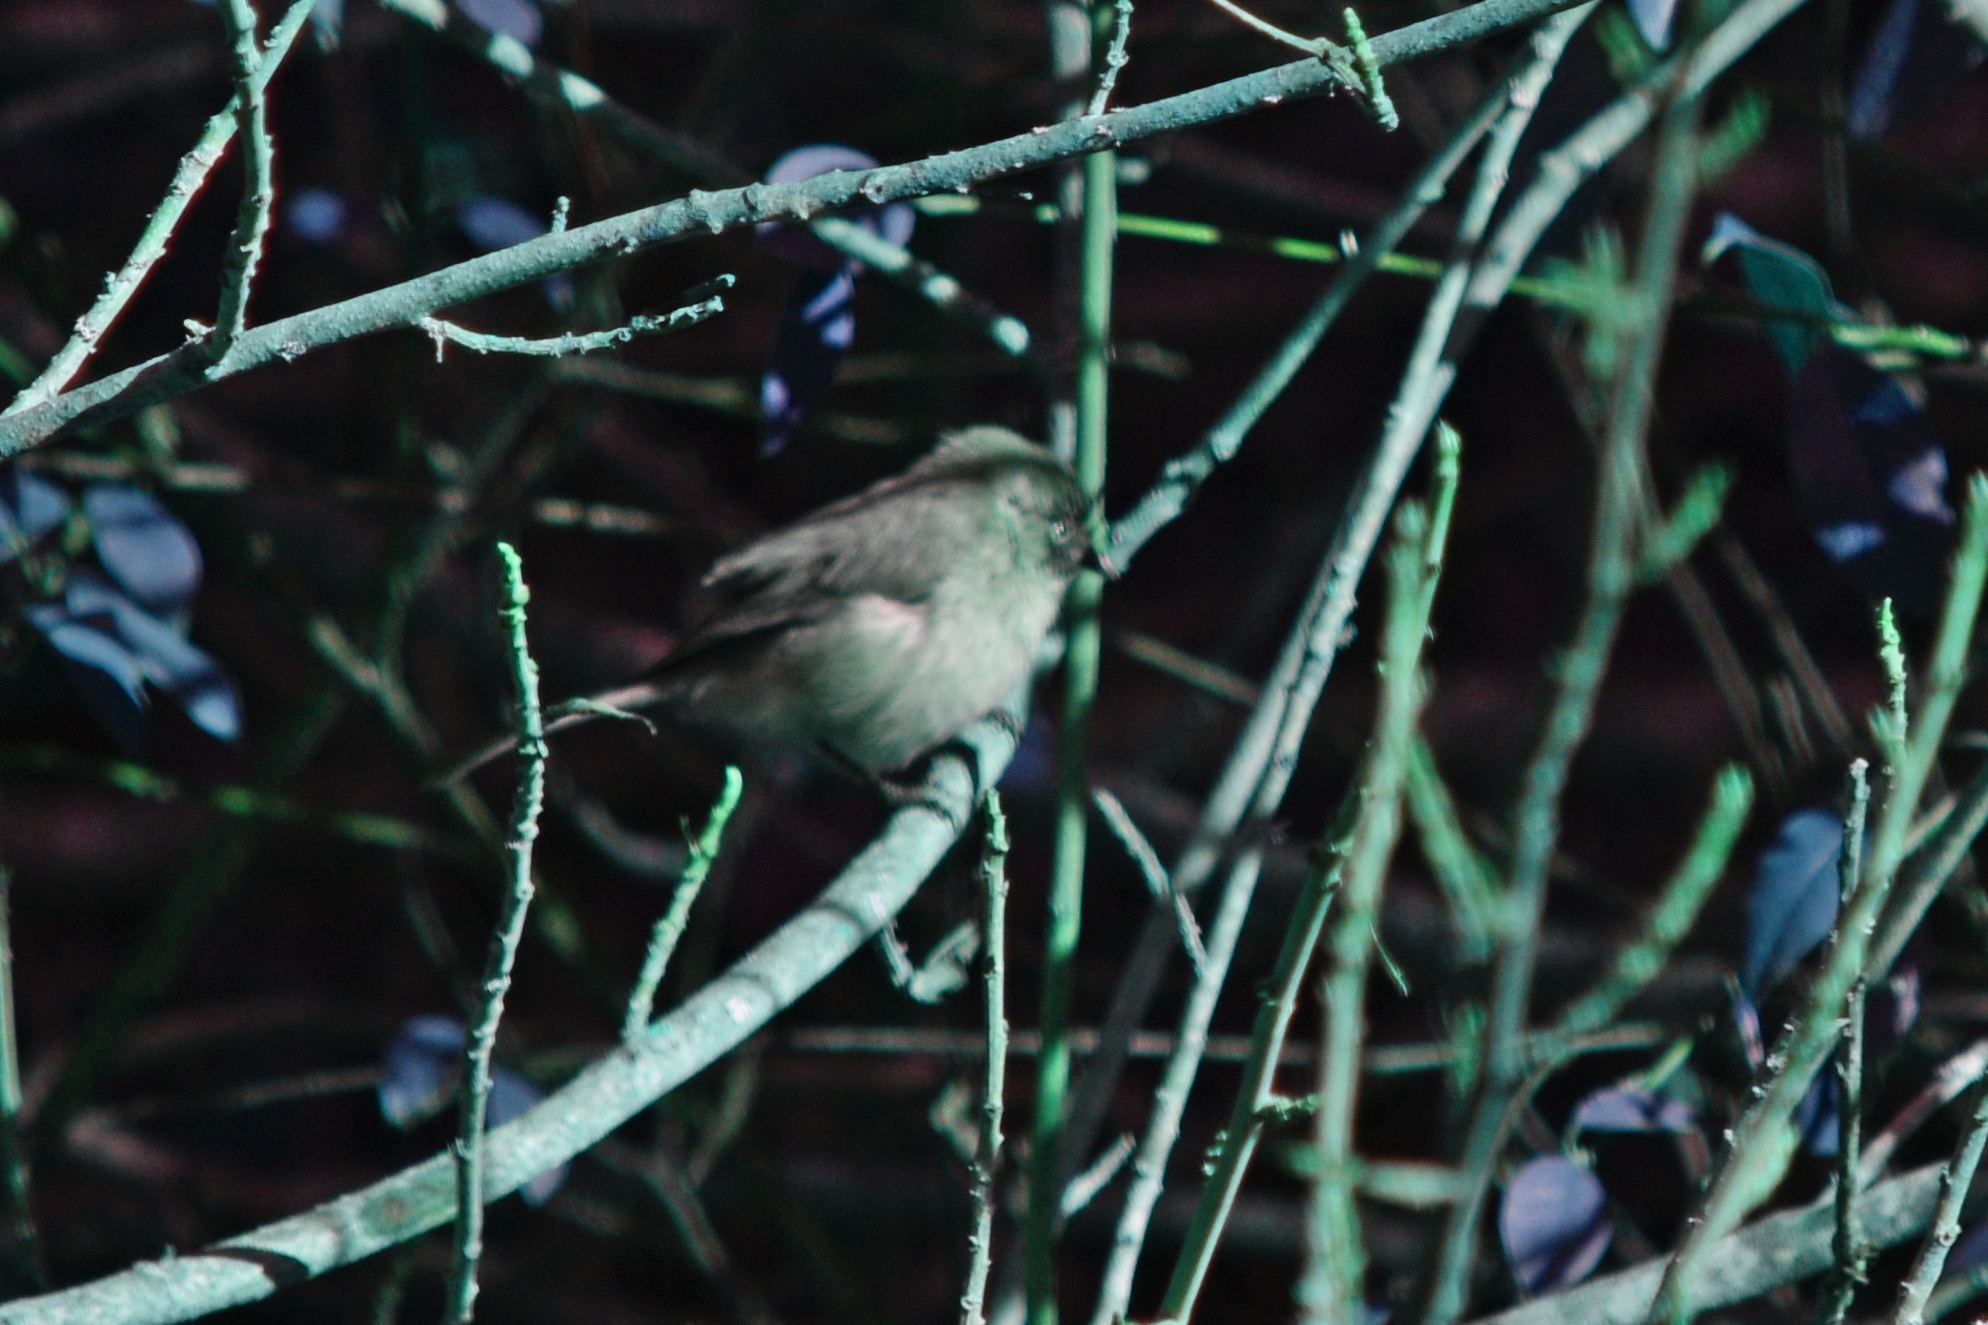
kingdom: Animalia
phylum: Chordata
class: Aves
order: Passeriformes
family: Aegithalidae
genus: Psaltriparus
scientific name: Psaltriparus minimus
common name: American bushtit
